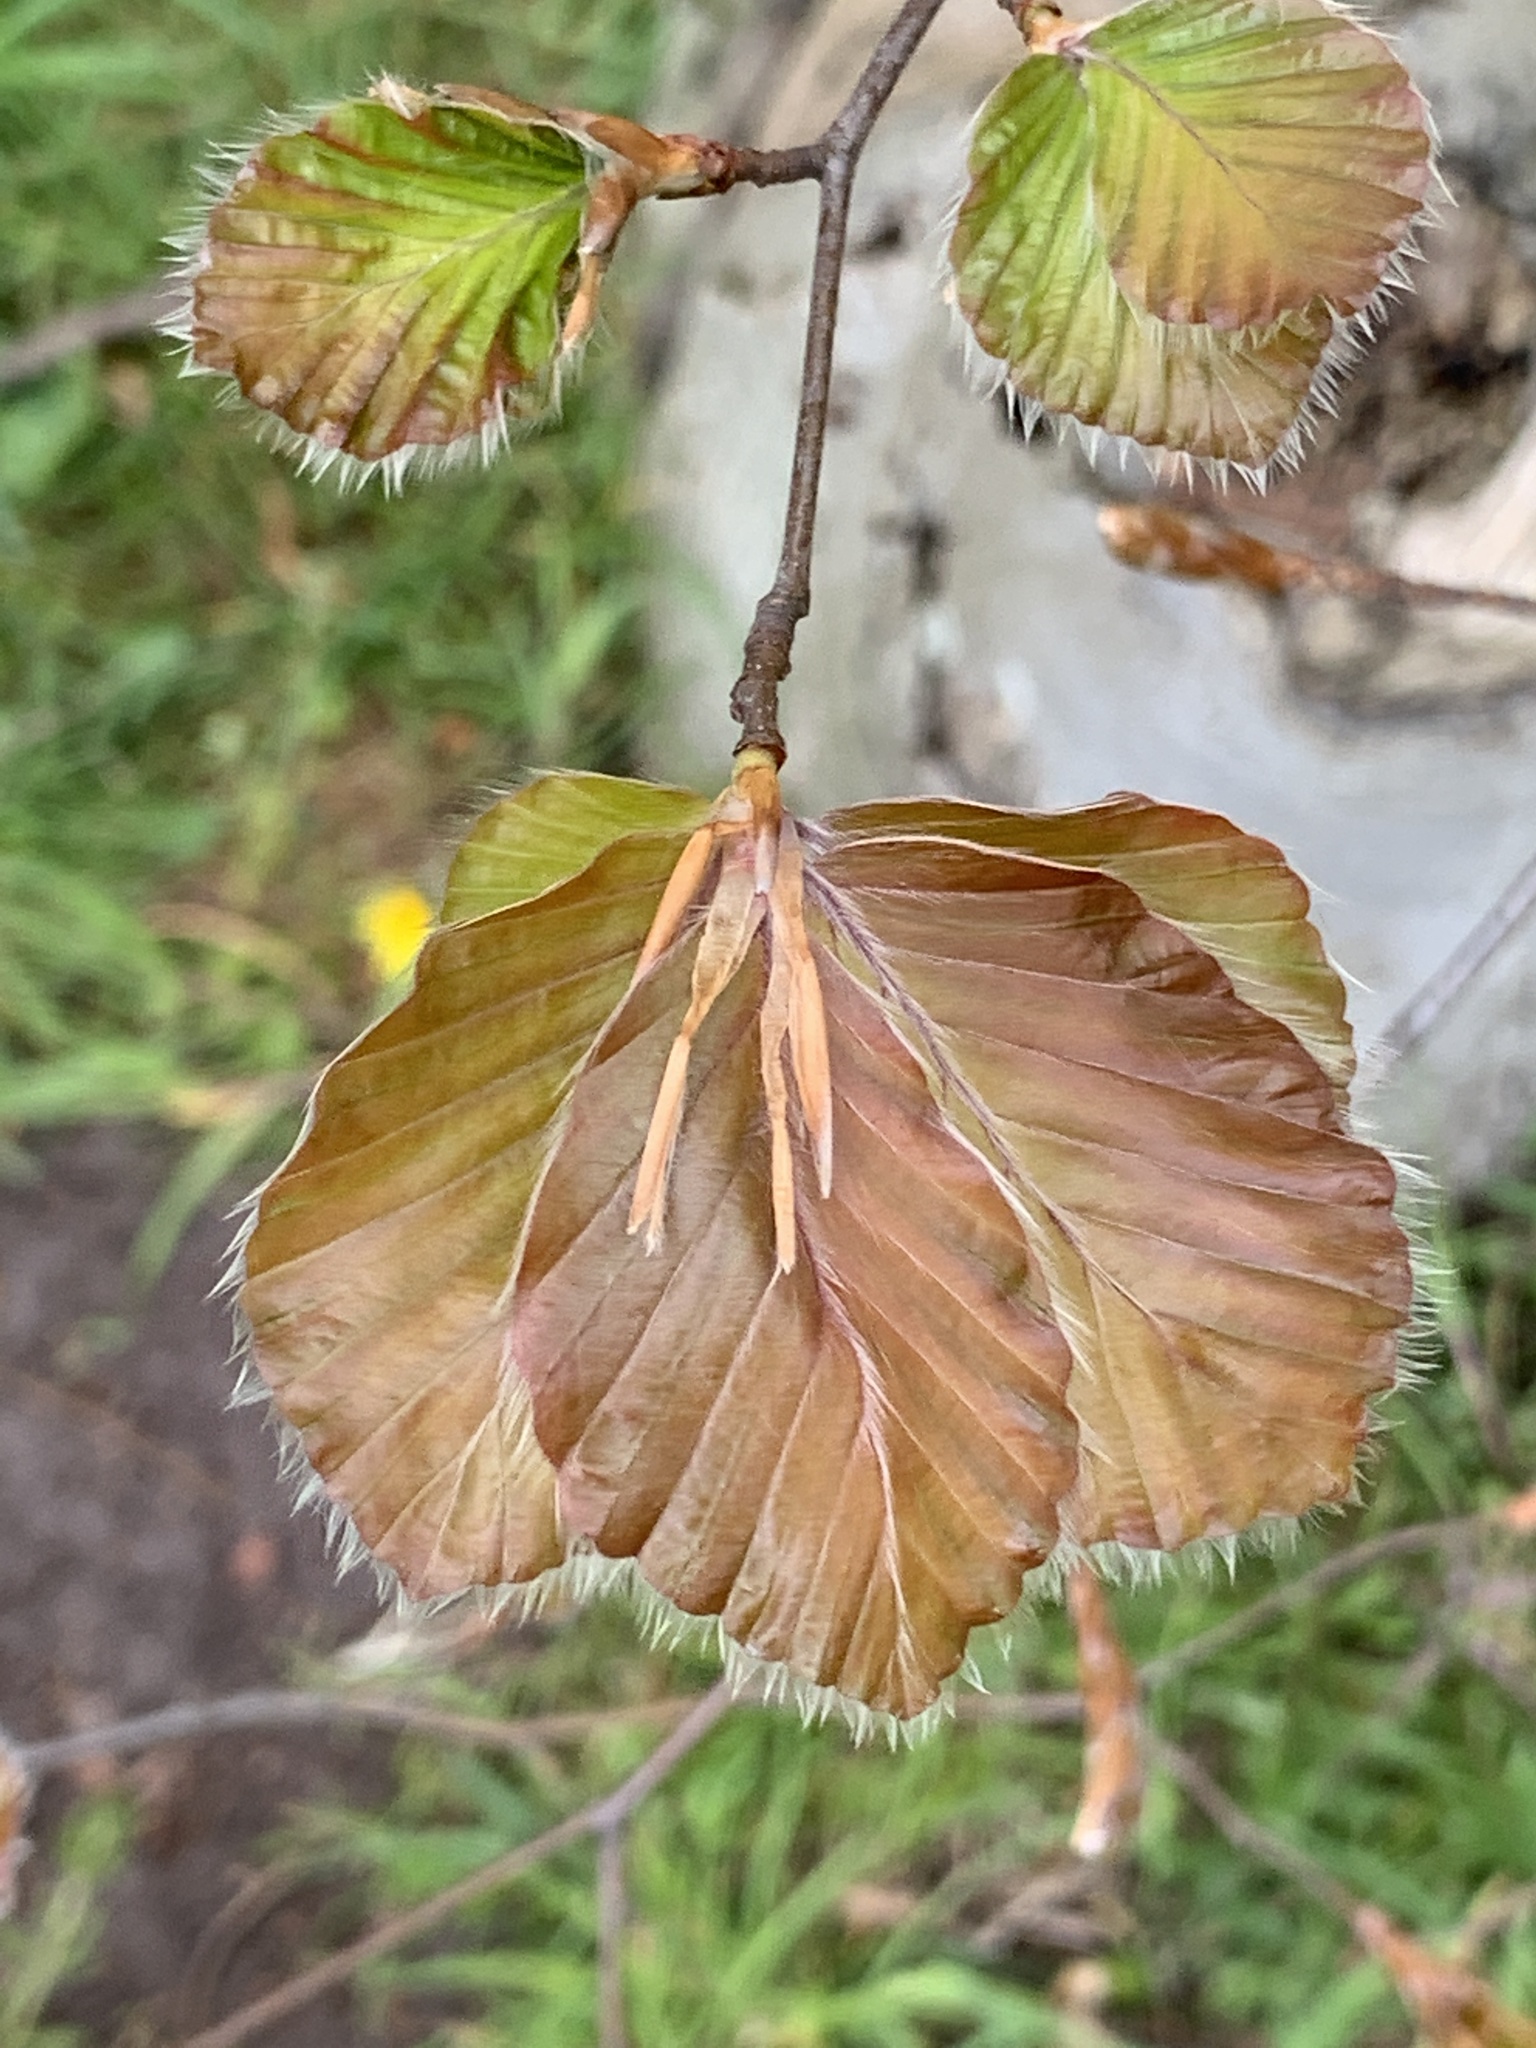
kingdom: Plantae
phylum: Tracheophyta
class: Magnoliopsida
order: Fagales
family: Fagaceae
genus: Fagus
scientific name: Fagus sylvatica
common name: Beech
